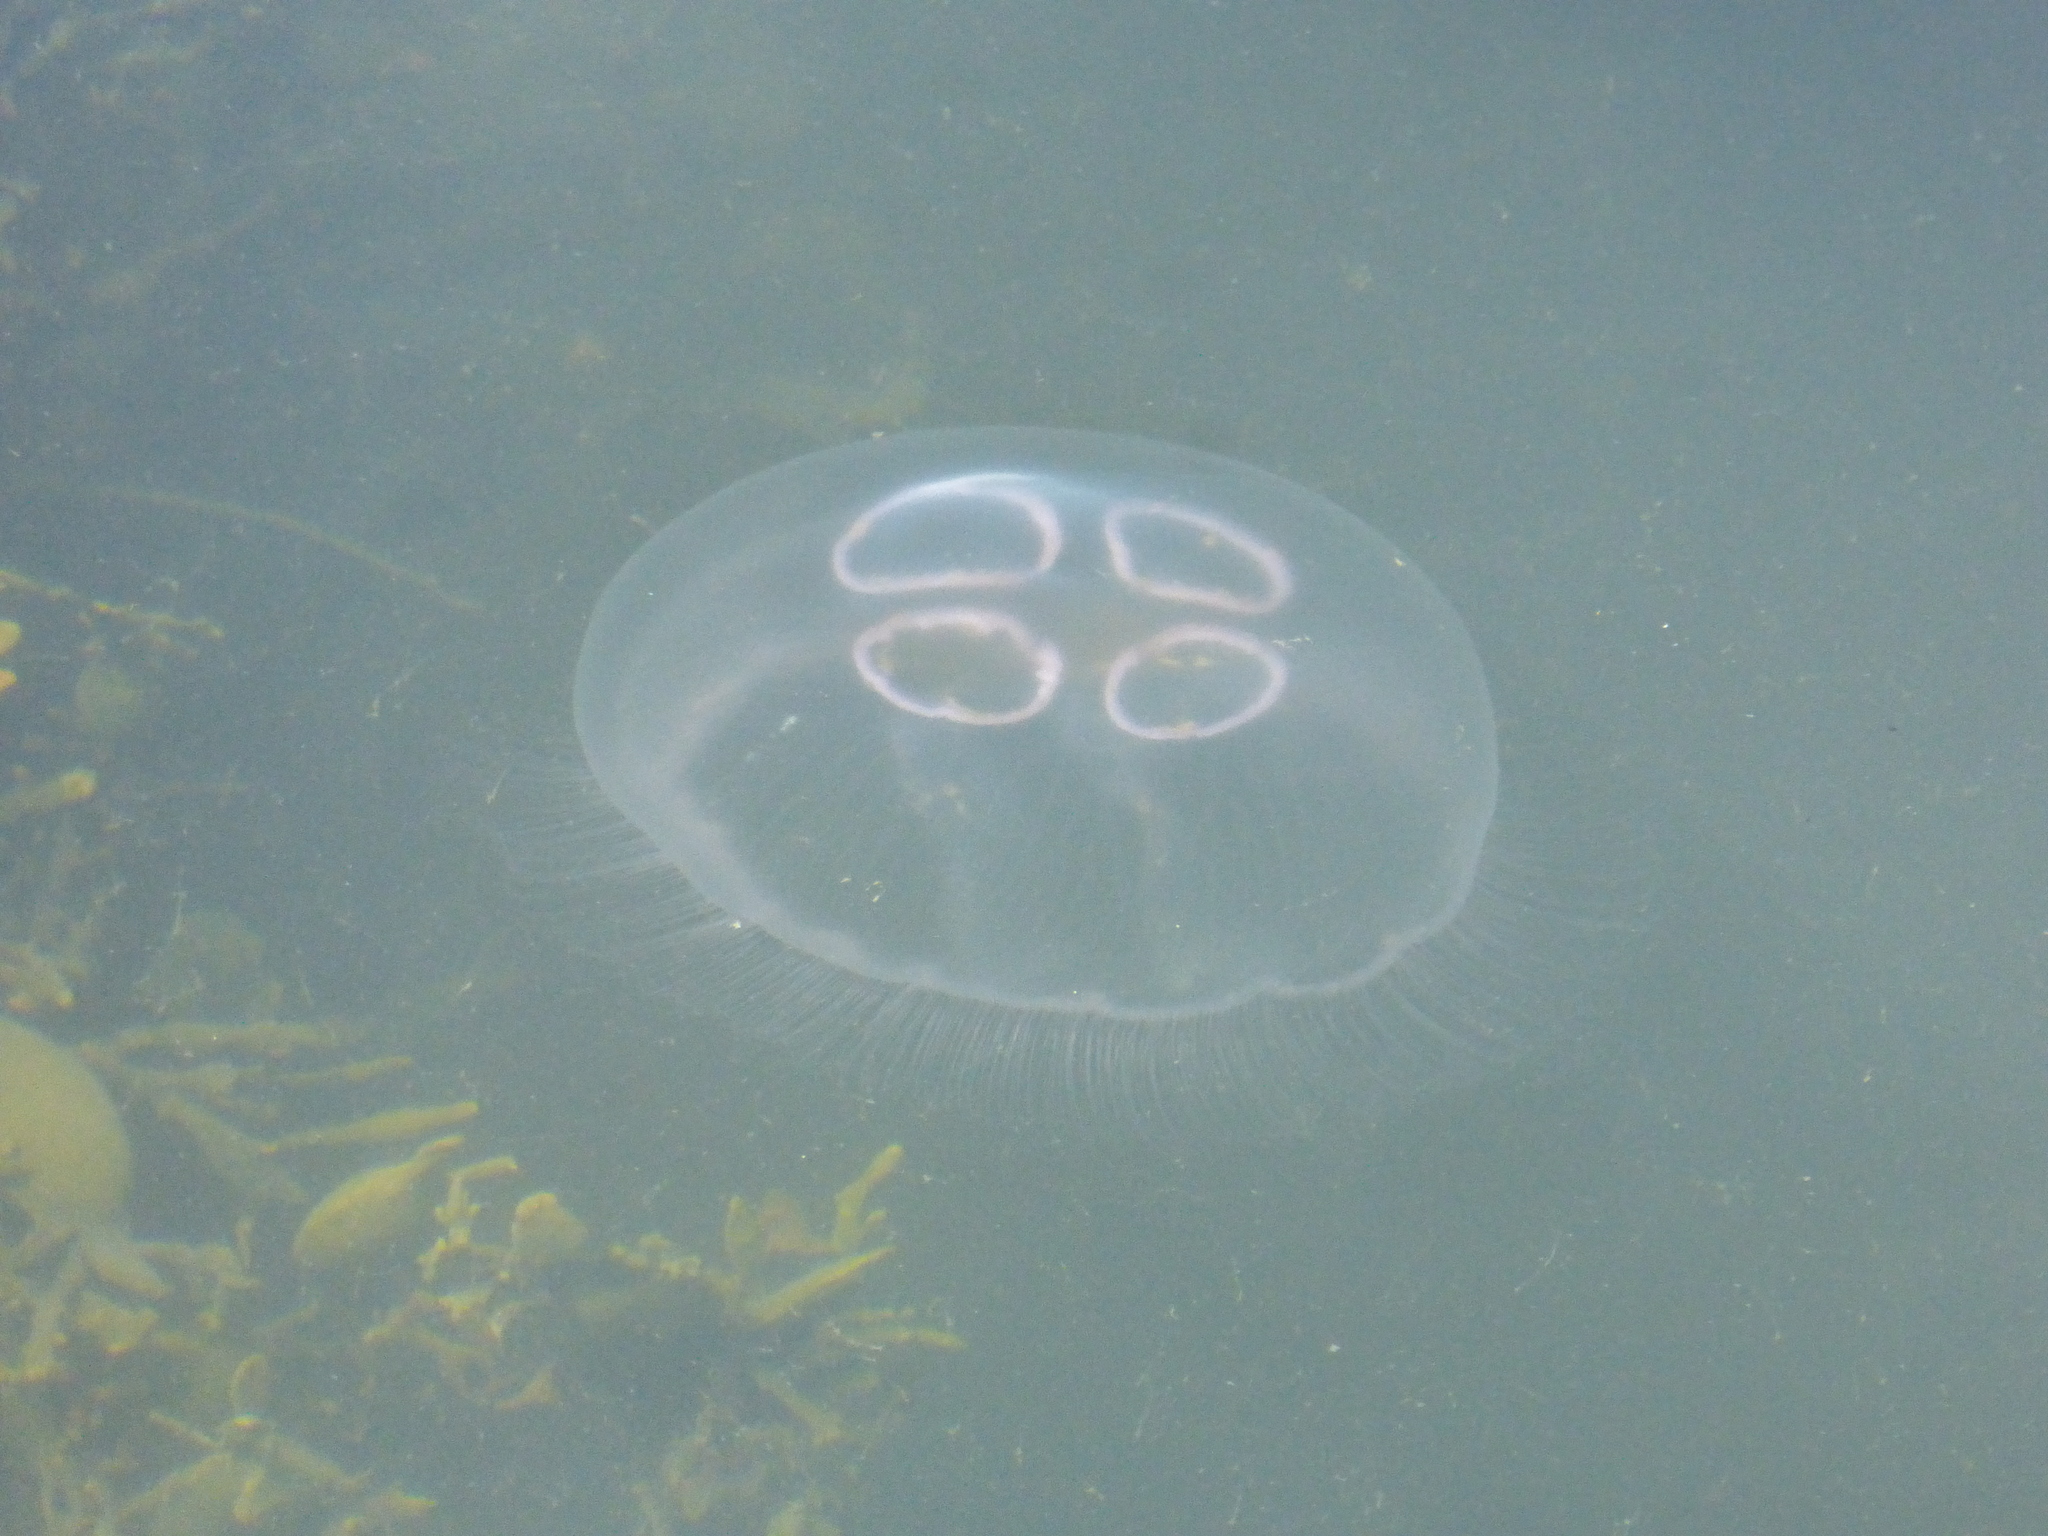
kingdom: Animalia
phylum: Cnidaria
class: Scyphozoa
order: Semaeostomeae
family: Ulmaridae
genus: Aurelia
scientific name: Aurelia aurita
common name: Moon jellyfish
